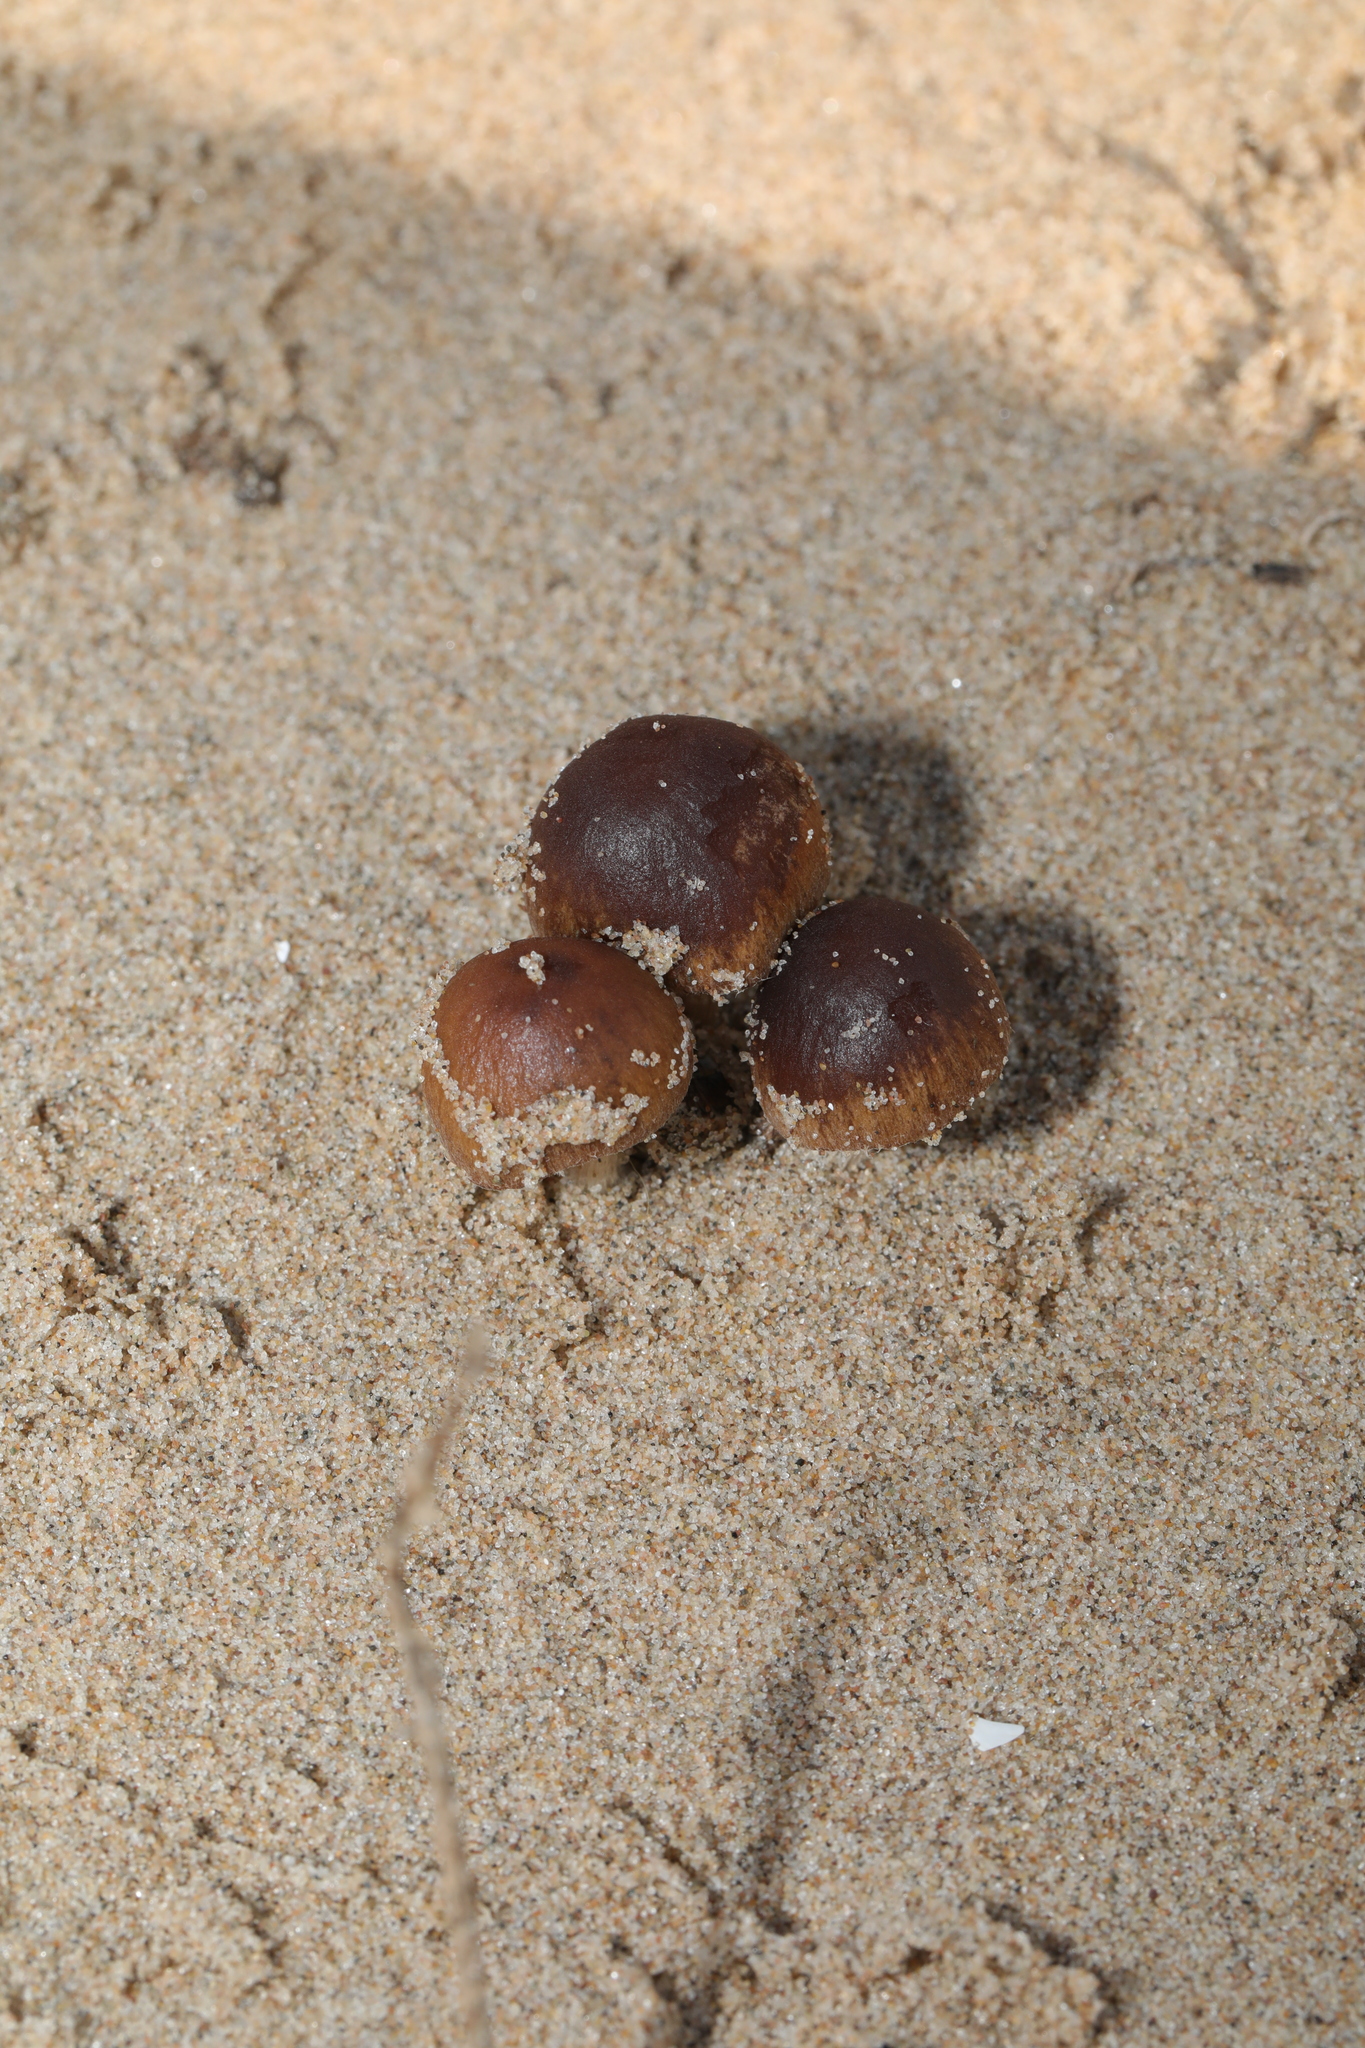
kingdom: Fungi
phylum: Basidiomycota
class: Agaricomycetes
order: Agaricales
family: Psathyrellaceae
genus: Psathyrella
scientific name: Psathyrella ammophila
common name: Dune brittlestem
